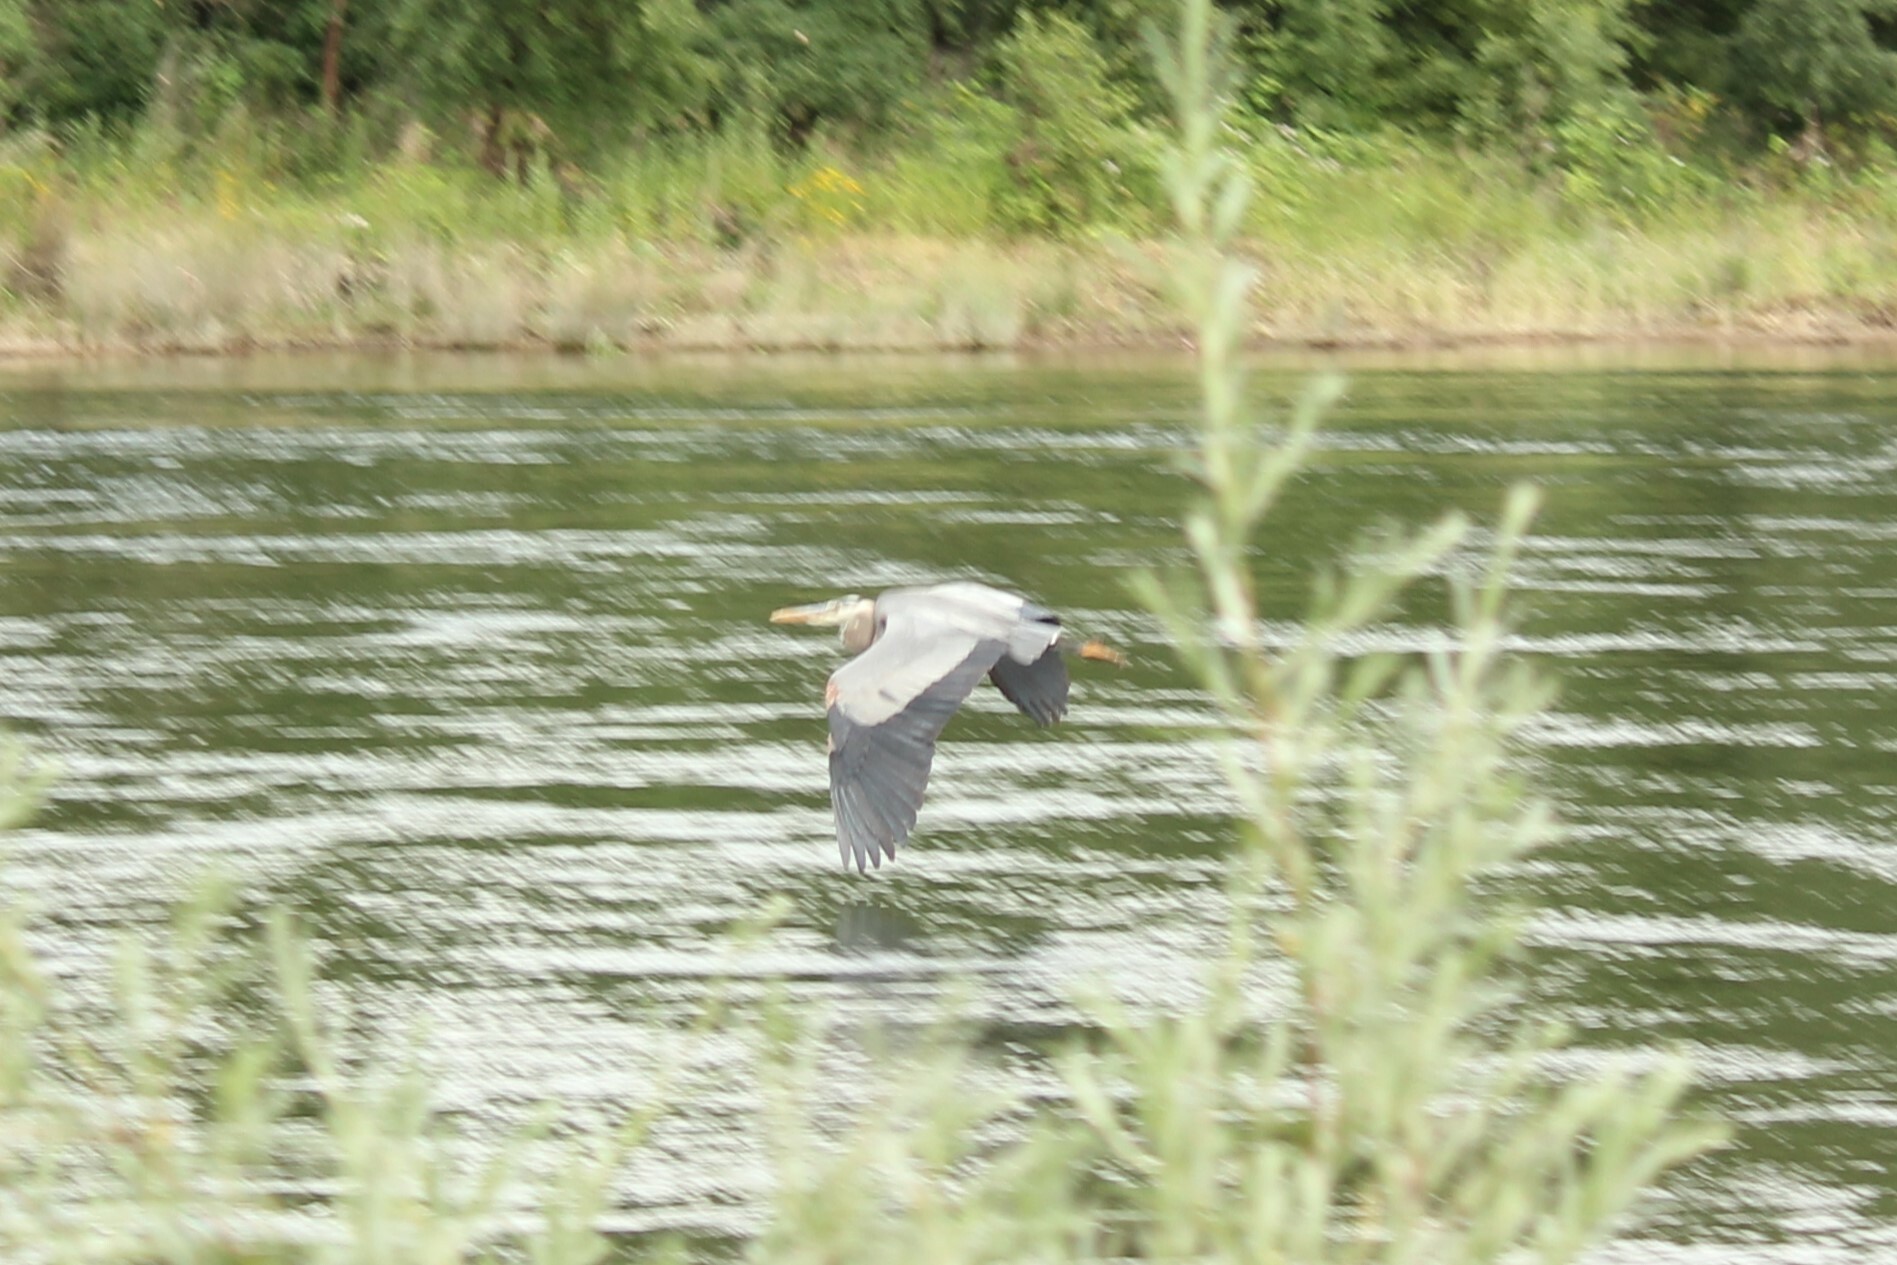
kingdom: Animalia
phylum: Chordata
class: Aves
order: Pelecaniformes
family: Ardeidae
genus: Ardea
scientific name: Ardea herodias
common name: Great blue heron
